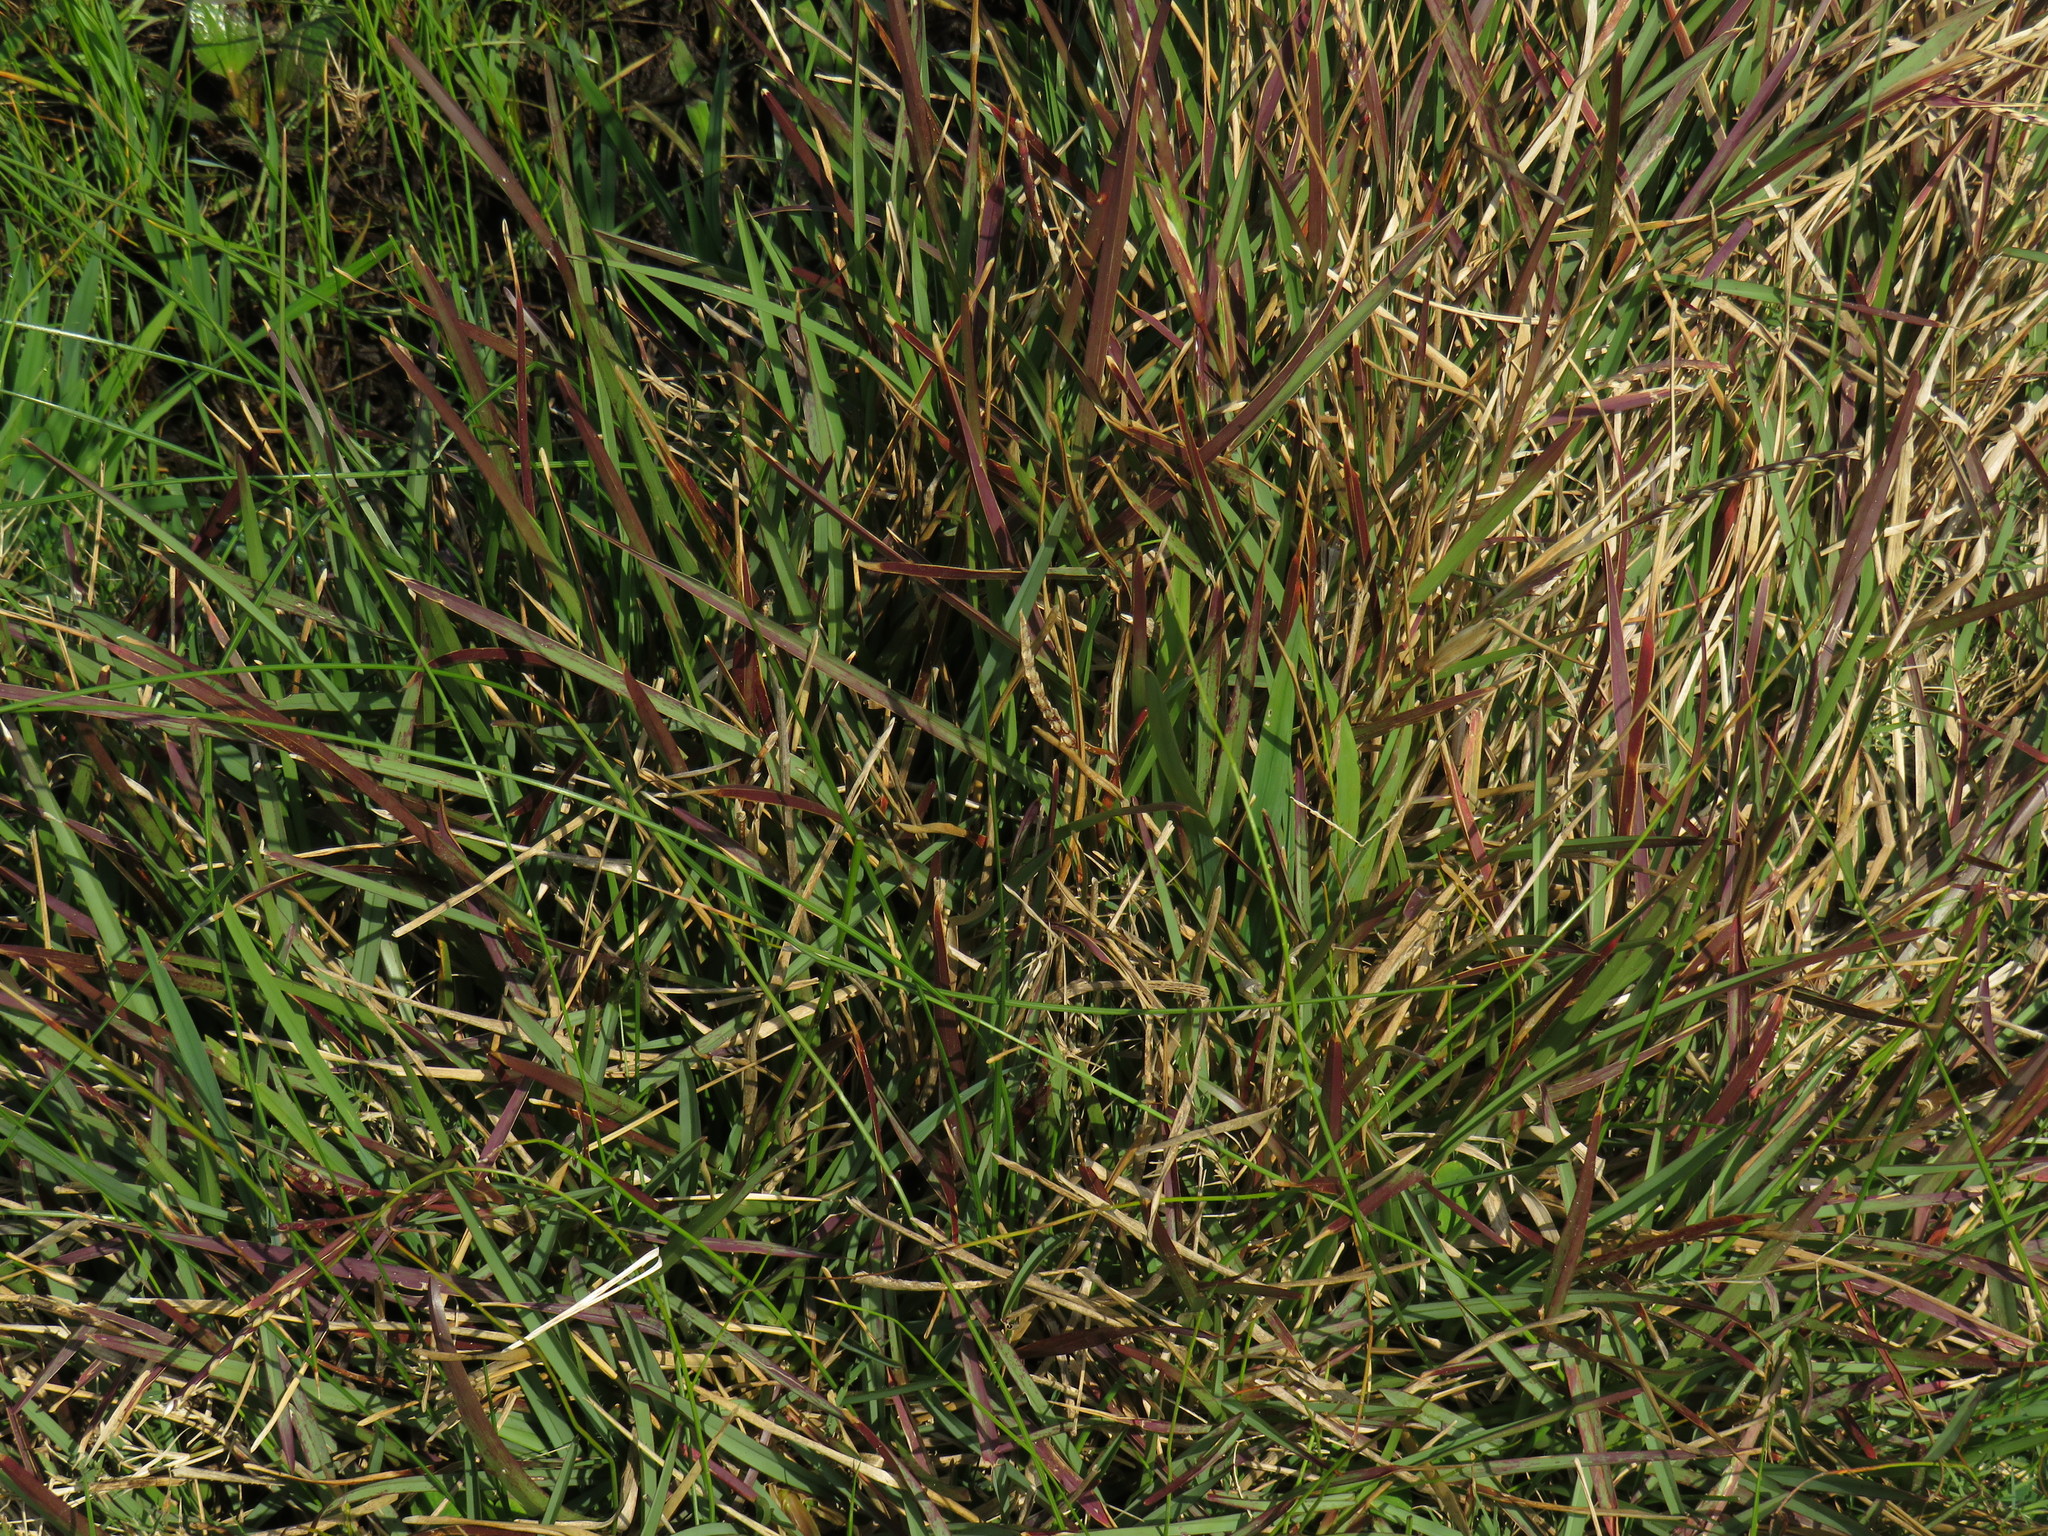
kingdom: Plantae
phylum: Tracheophyta
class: Liliopsida
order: Poales
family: Poaceae
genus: Stenotaphrum
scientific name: Stenotaphrum secundatum
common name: St. augustine grass
